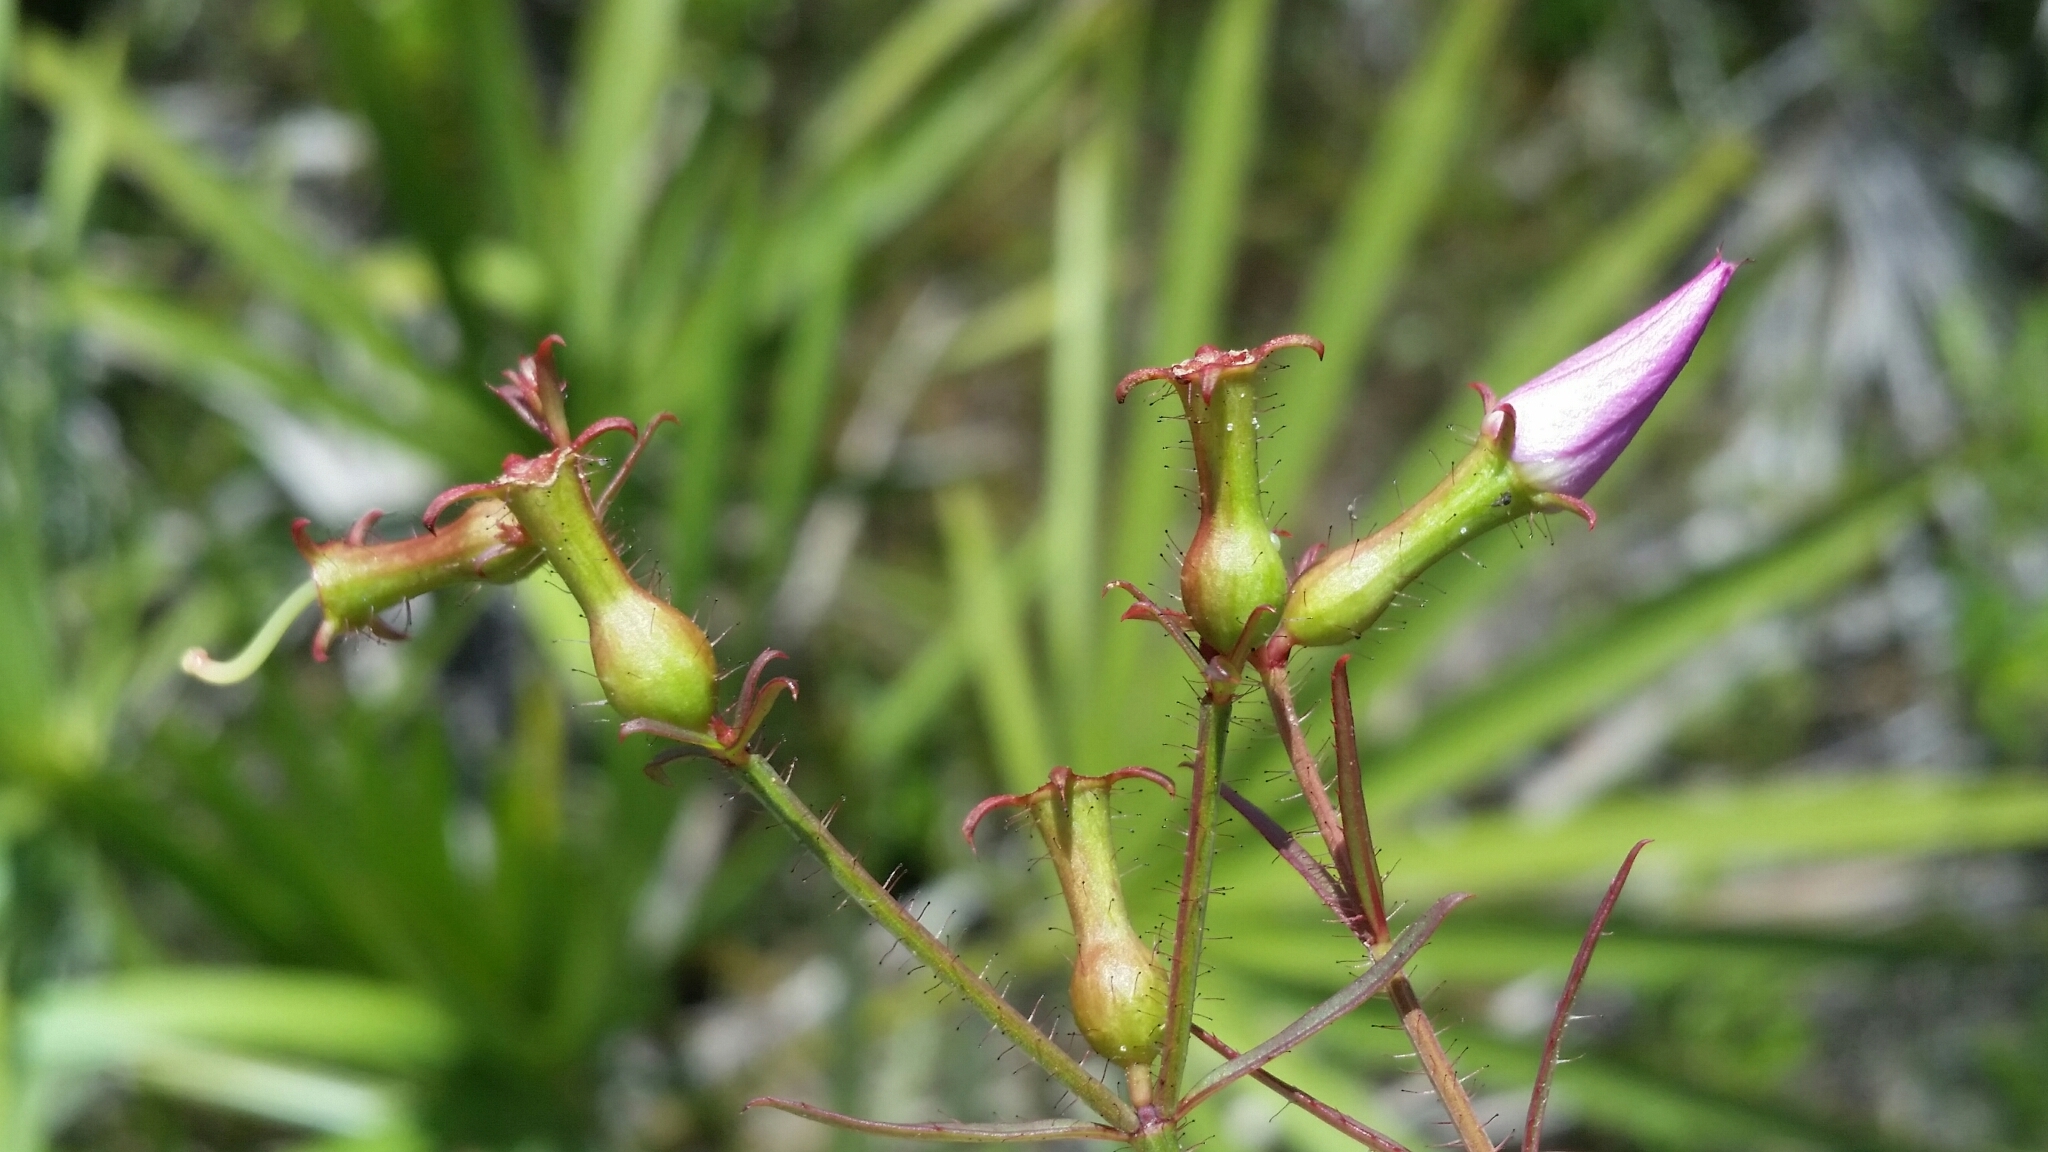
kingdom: Plantae
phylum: Tracheophyta
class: Magnoliopsida
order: Myrtales
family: Melastomataceae
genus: Rhexia
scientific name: Rhexia cubensis
